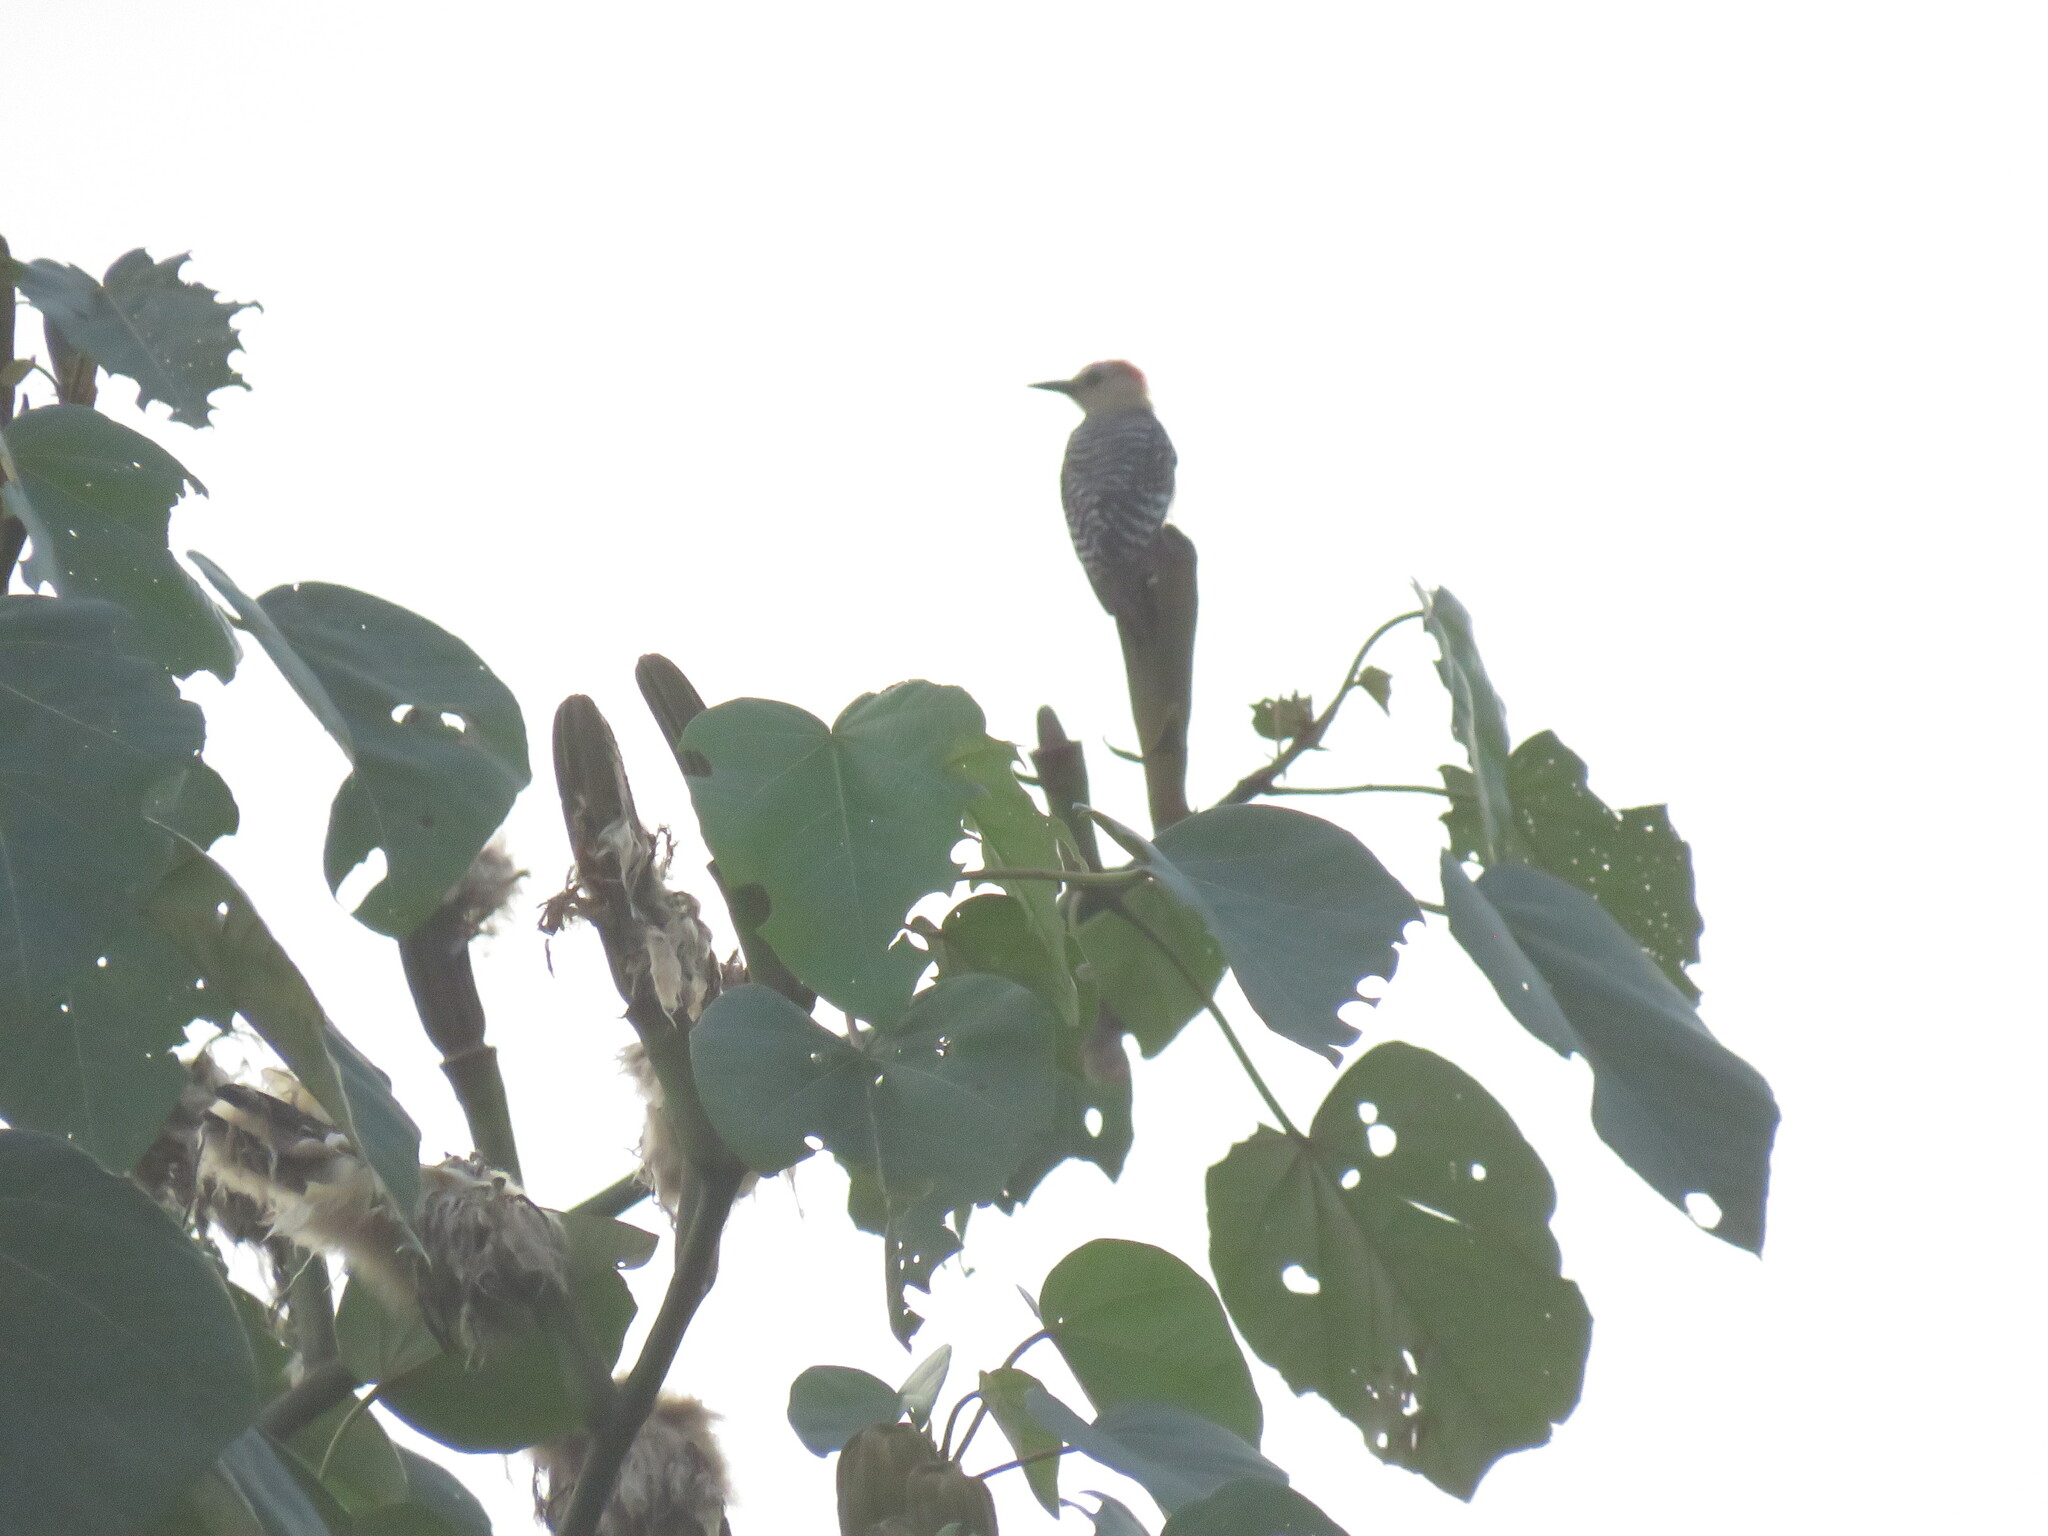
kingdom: Animalia
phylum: Chordata
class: Aves
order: Piciformes
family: Picidae
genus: Melanerpes
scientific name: Melanerpes rubricapillus
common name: Red-crowned woodpecker
